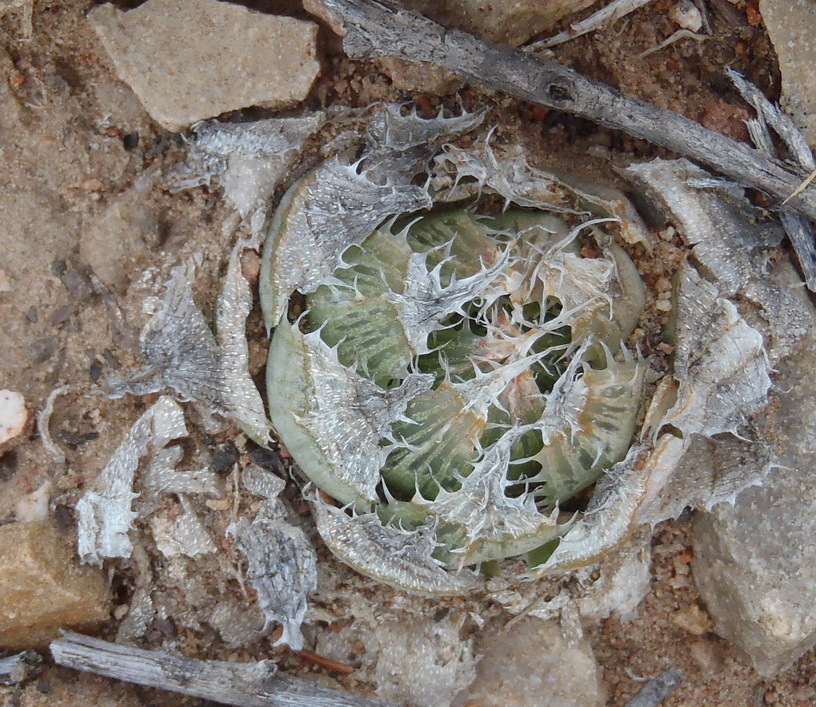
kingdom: Plantae
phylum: Tracheophyta
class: Liliopsida
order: Asparagales
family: Asphodelaceae
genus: Haworthia
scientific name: Haworthia decipiens
